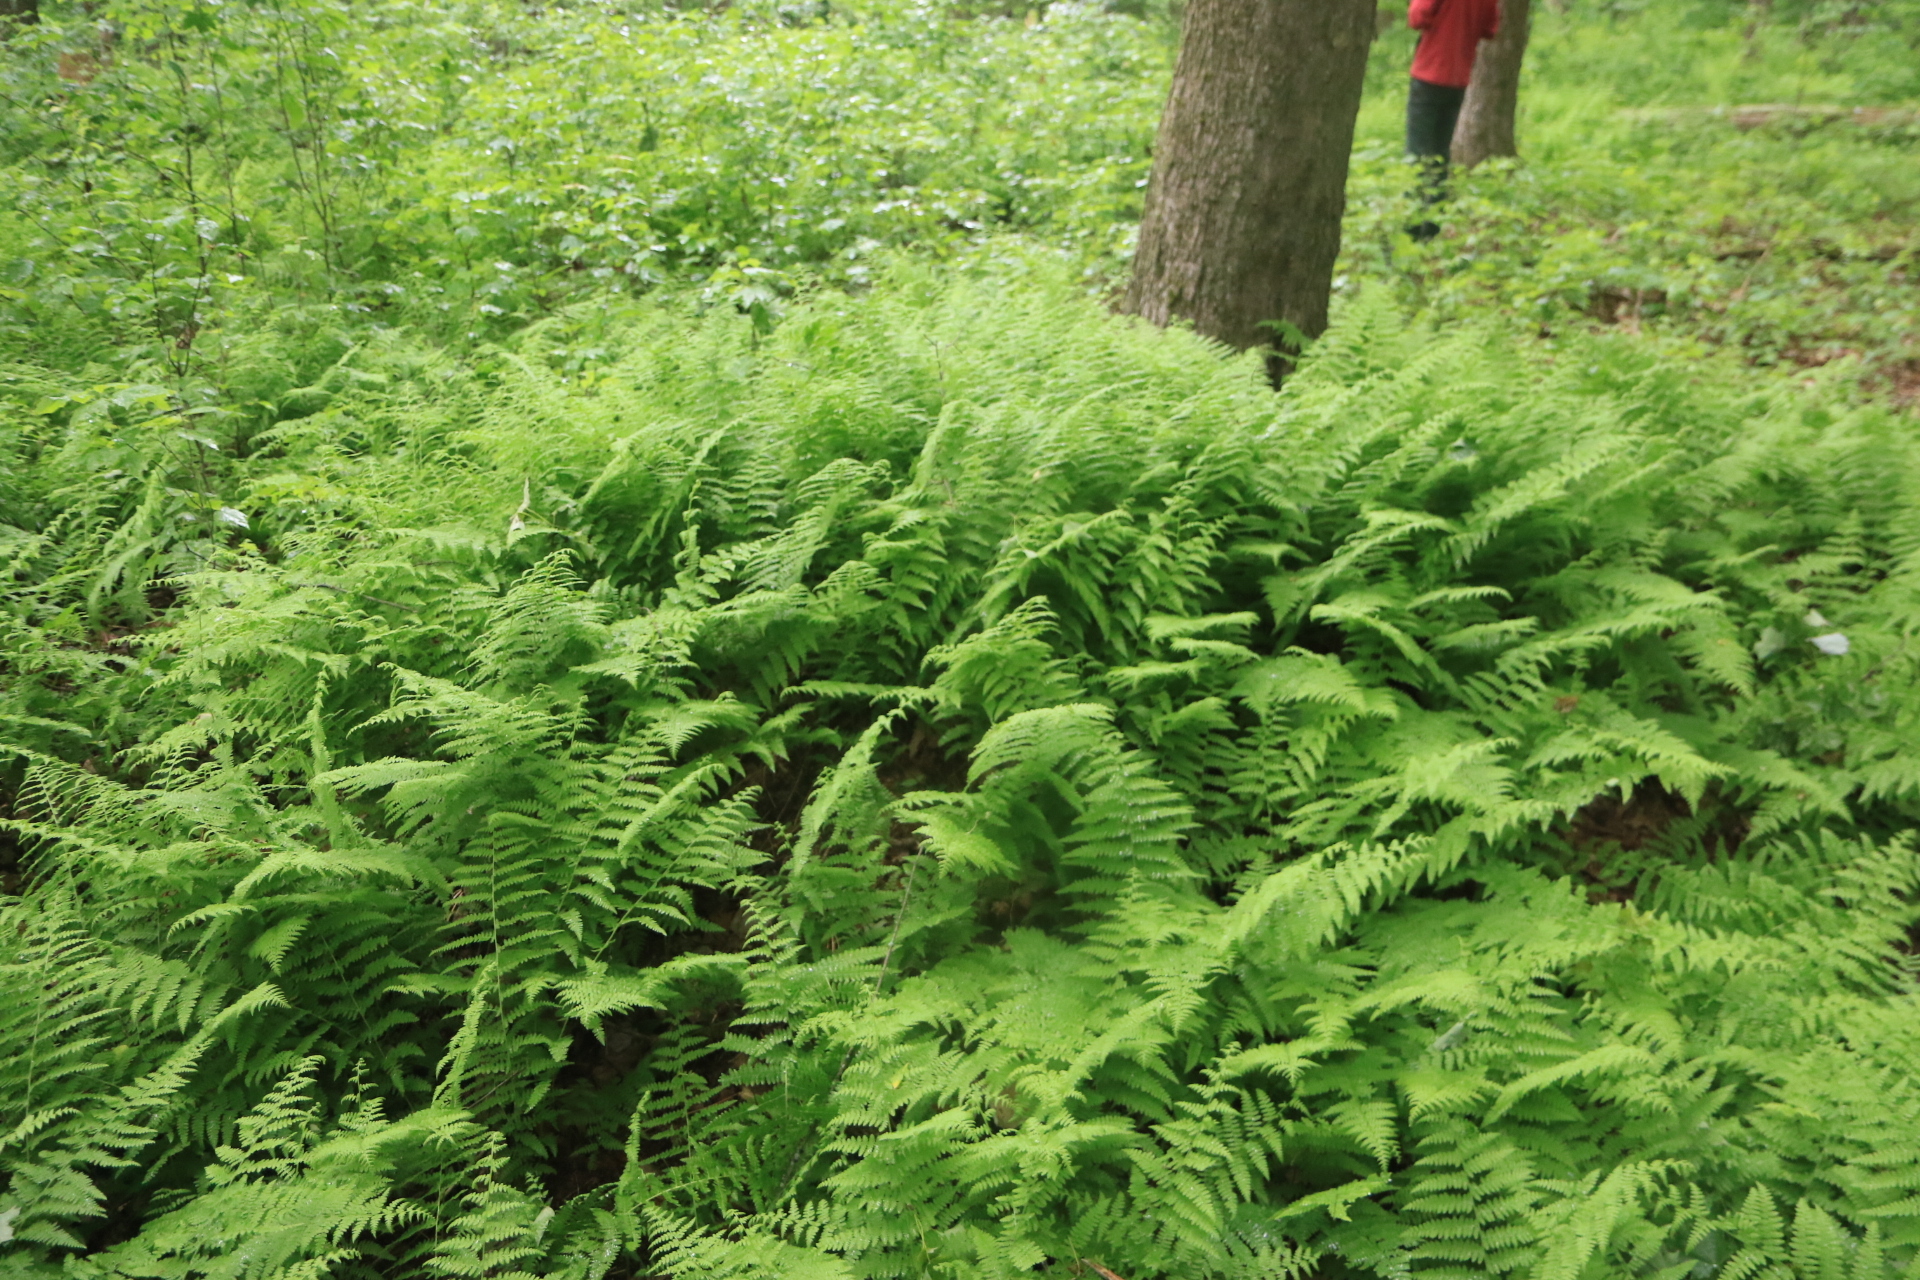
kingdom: Plantae
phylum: Tracheophyta
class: Polypodiopsida
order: Polypodiales
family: Dennstaedtiaceae
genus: Sitobolium
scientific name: Sitobolium punctilobum
